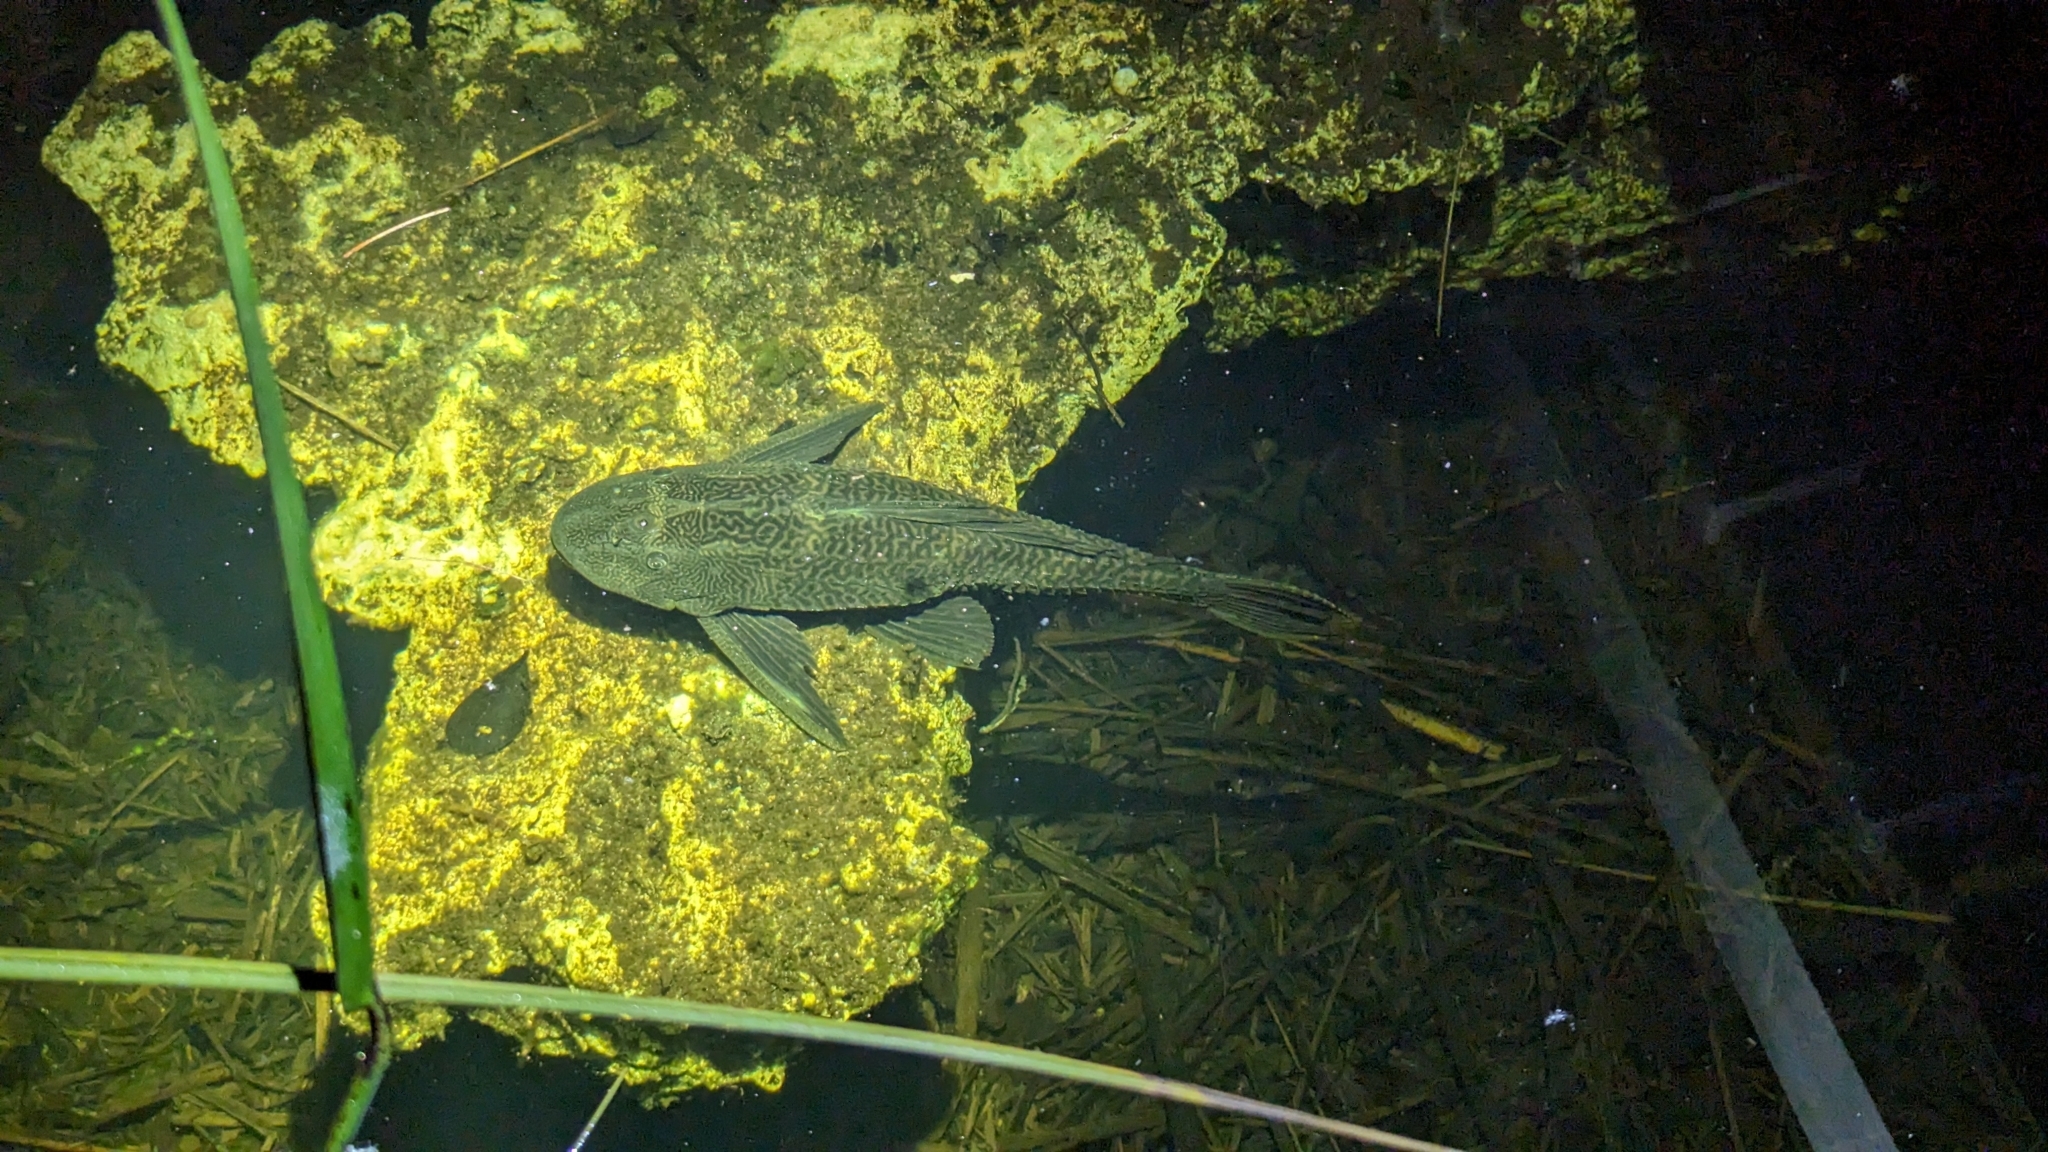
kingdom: Animalia
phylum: Chordata
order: Siluriformes
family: Loricariidae
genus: Pterygoplichthys
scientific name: Pterygoplichthys
